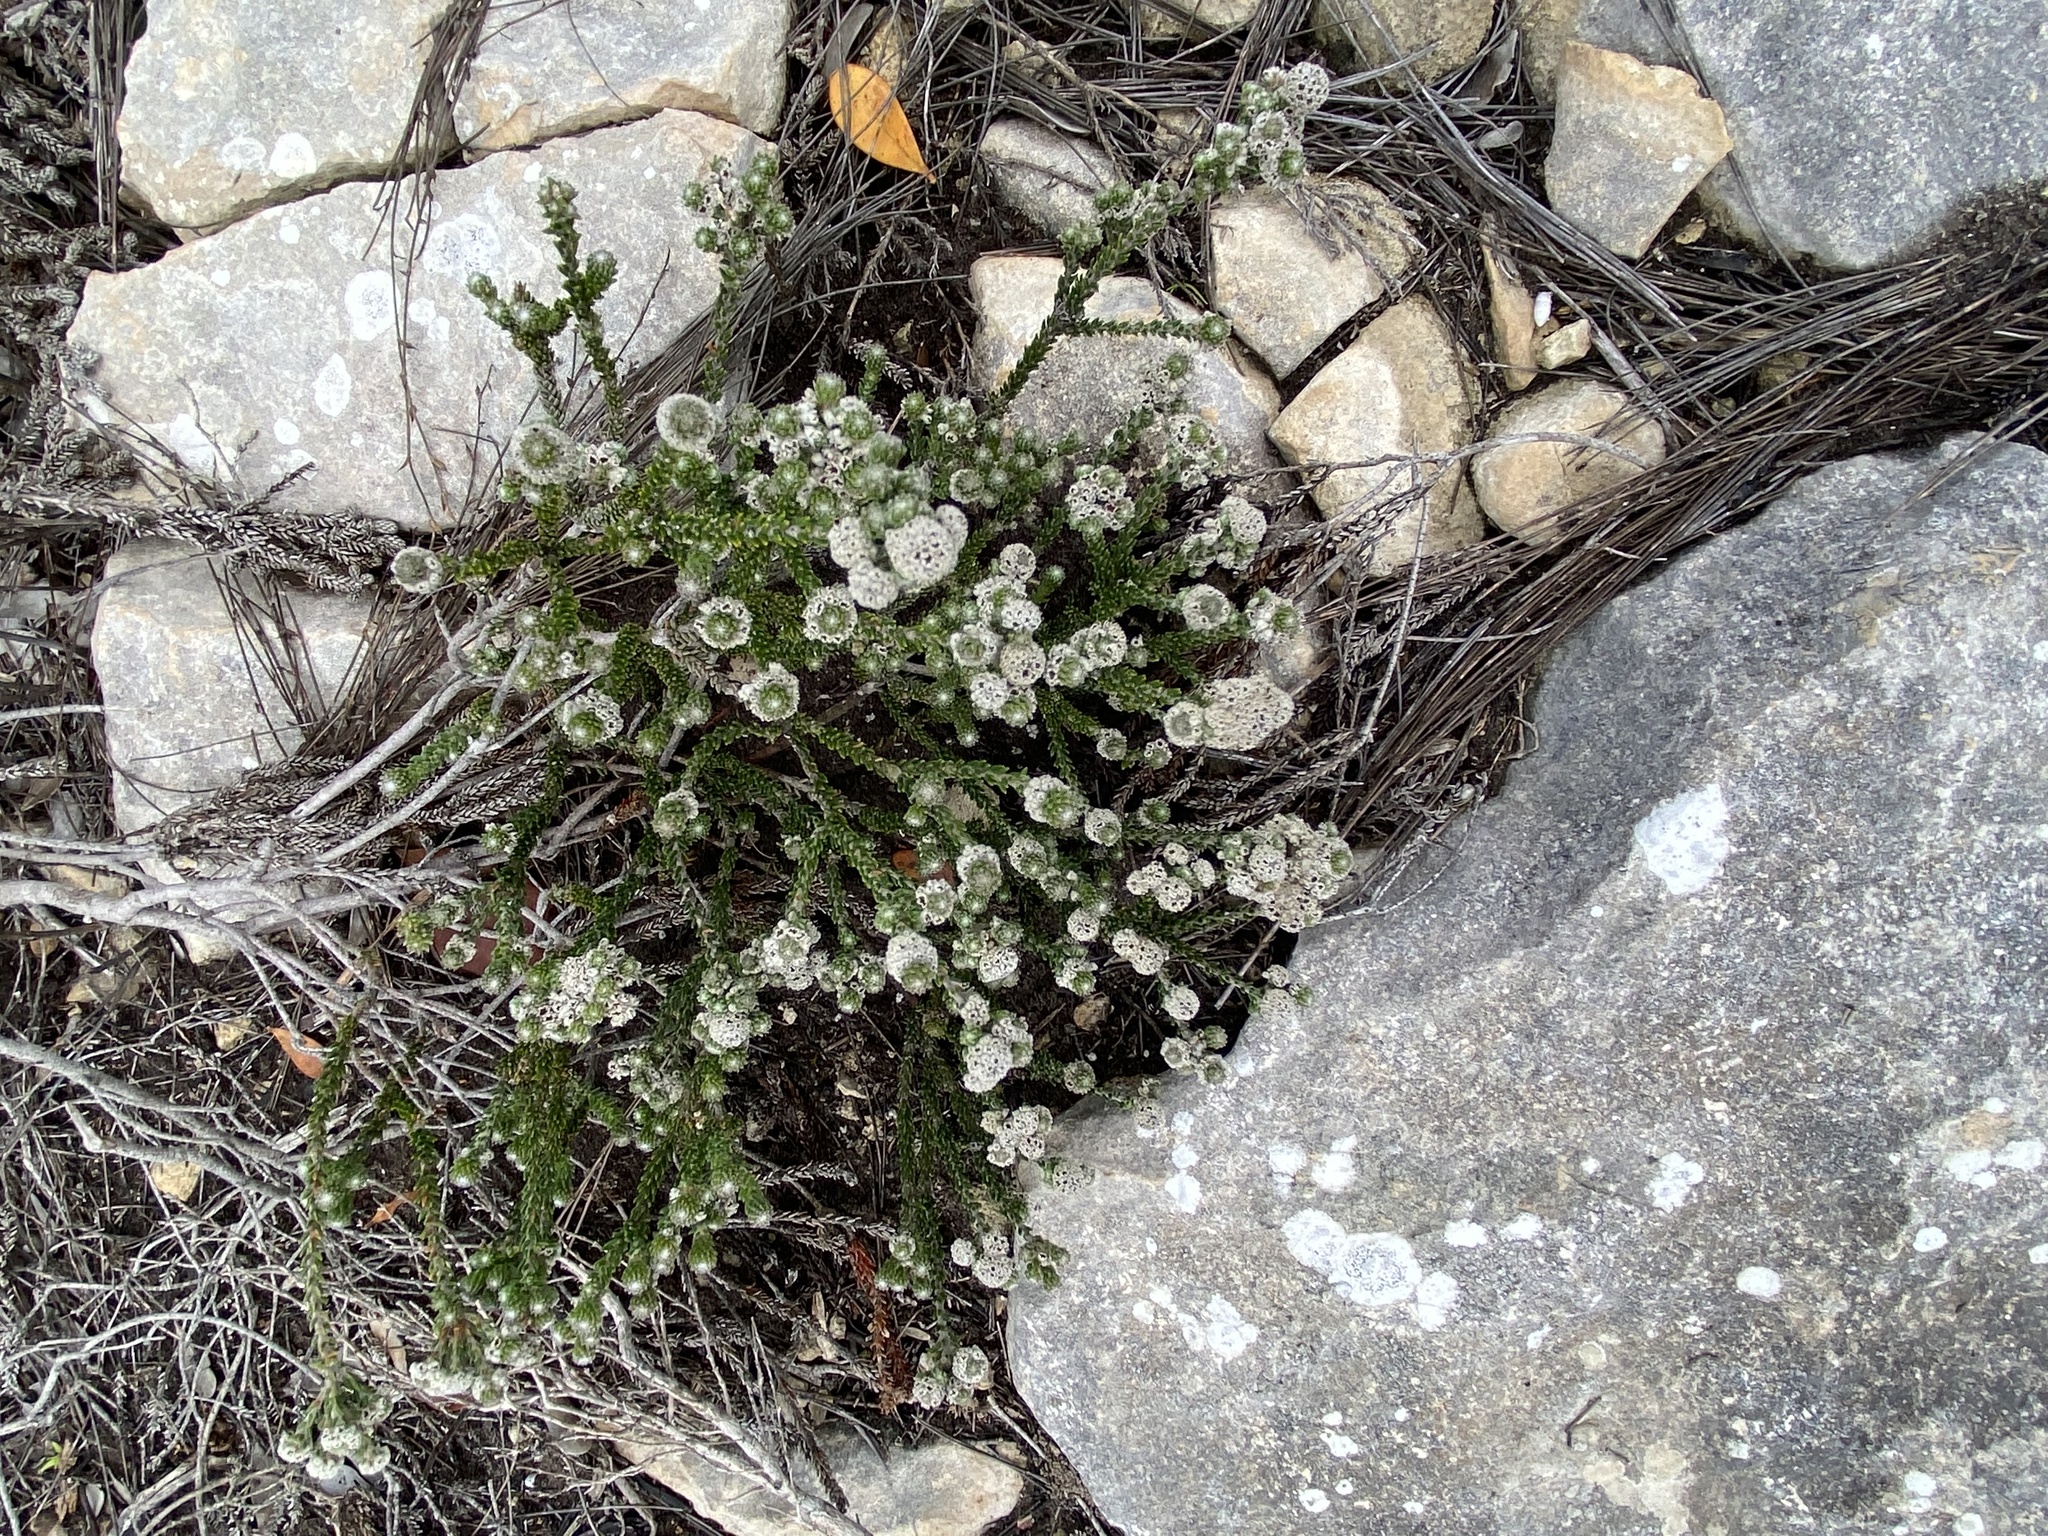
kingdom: Plantae
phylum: Tracheophyta
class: Magnoliopsida
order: Rosales
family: Rhamnaceae
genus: Phylica
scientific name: Phylica purpurea
